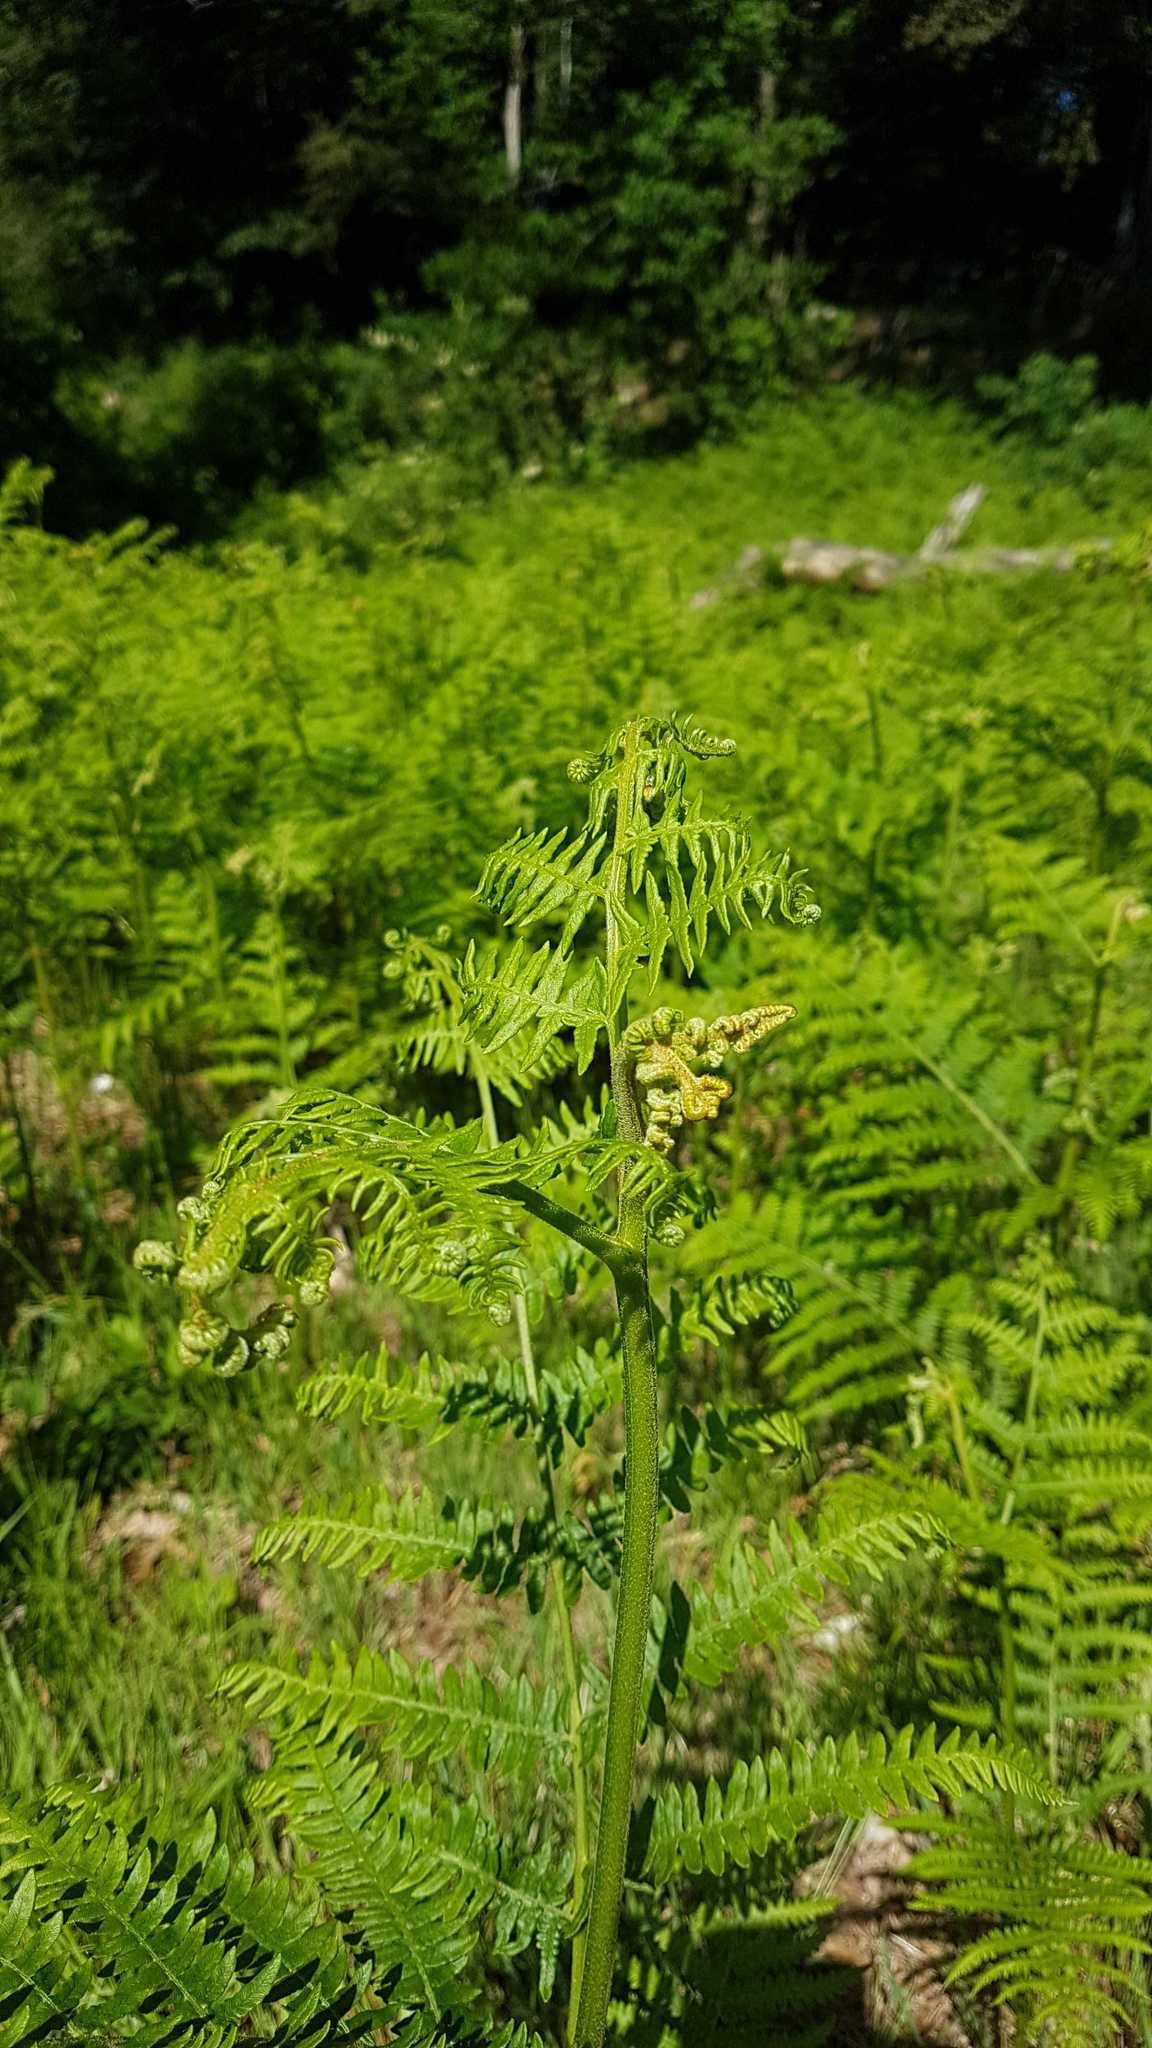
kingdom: Plantae
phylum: Tracheophyta
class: Polypodiopsida
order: Polypodiales
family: Dennstaedtiaceae
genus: Pteridium
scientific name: Pteridium aquilinum
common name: Bracken
